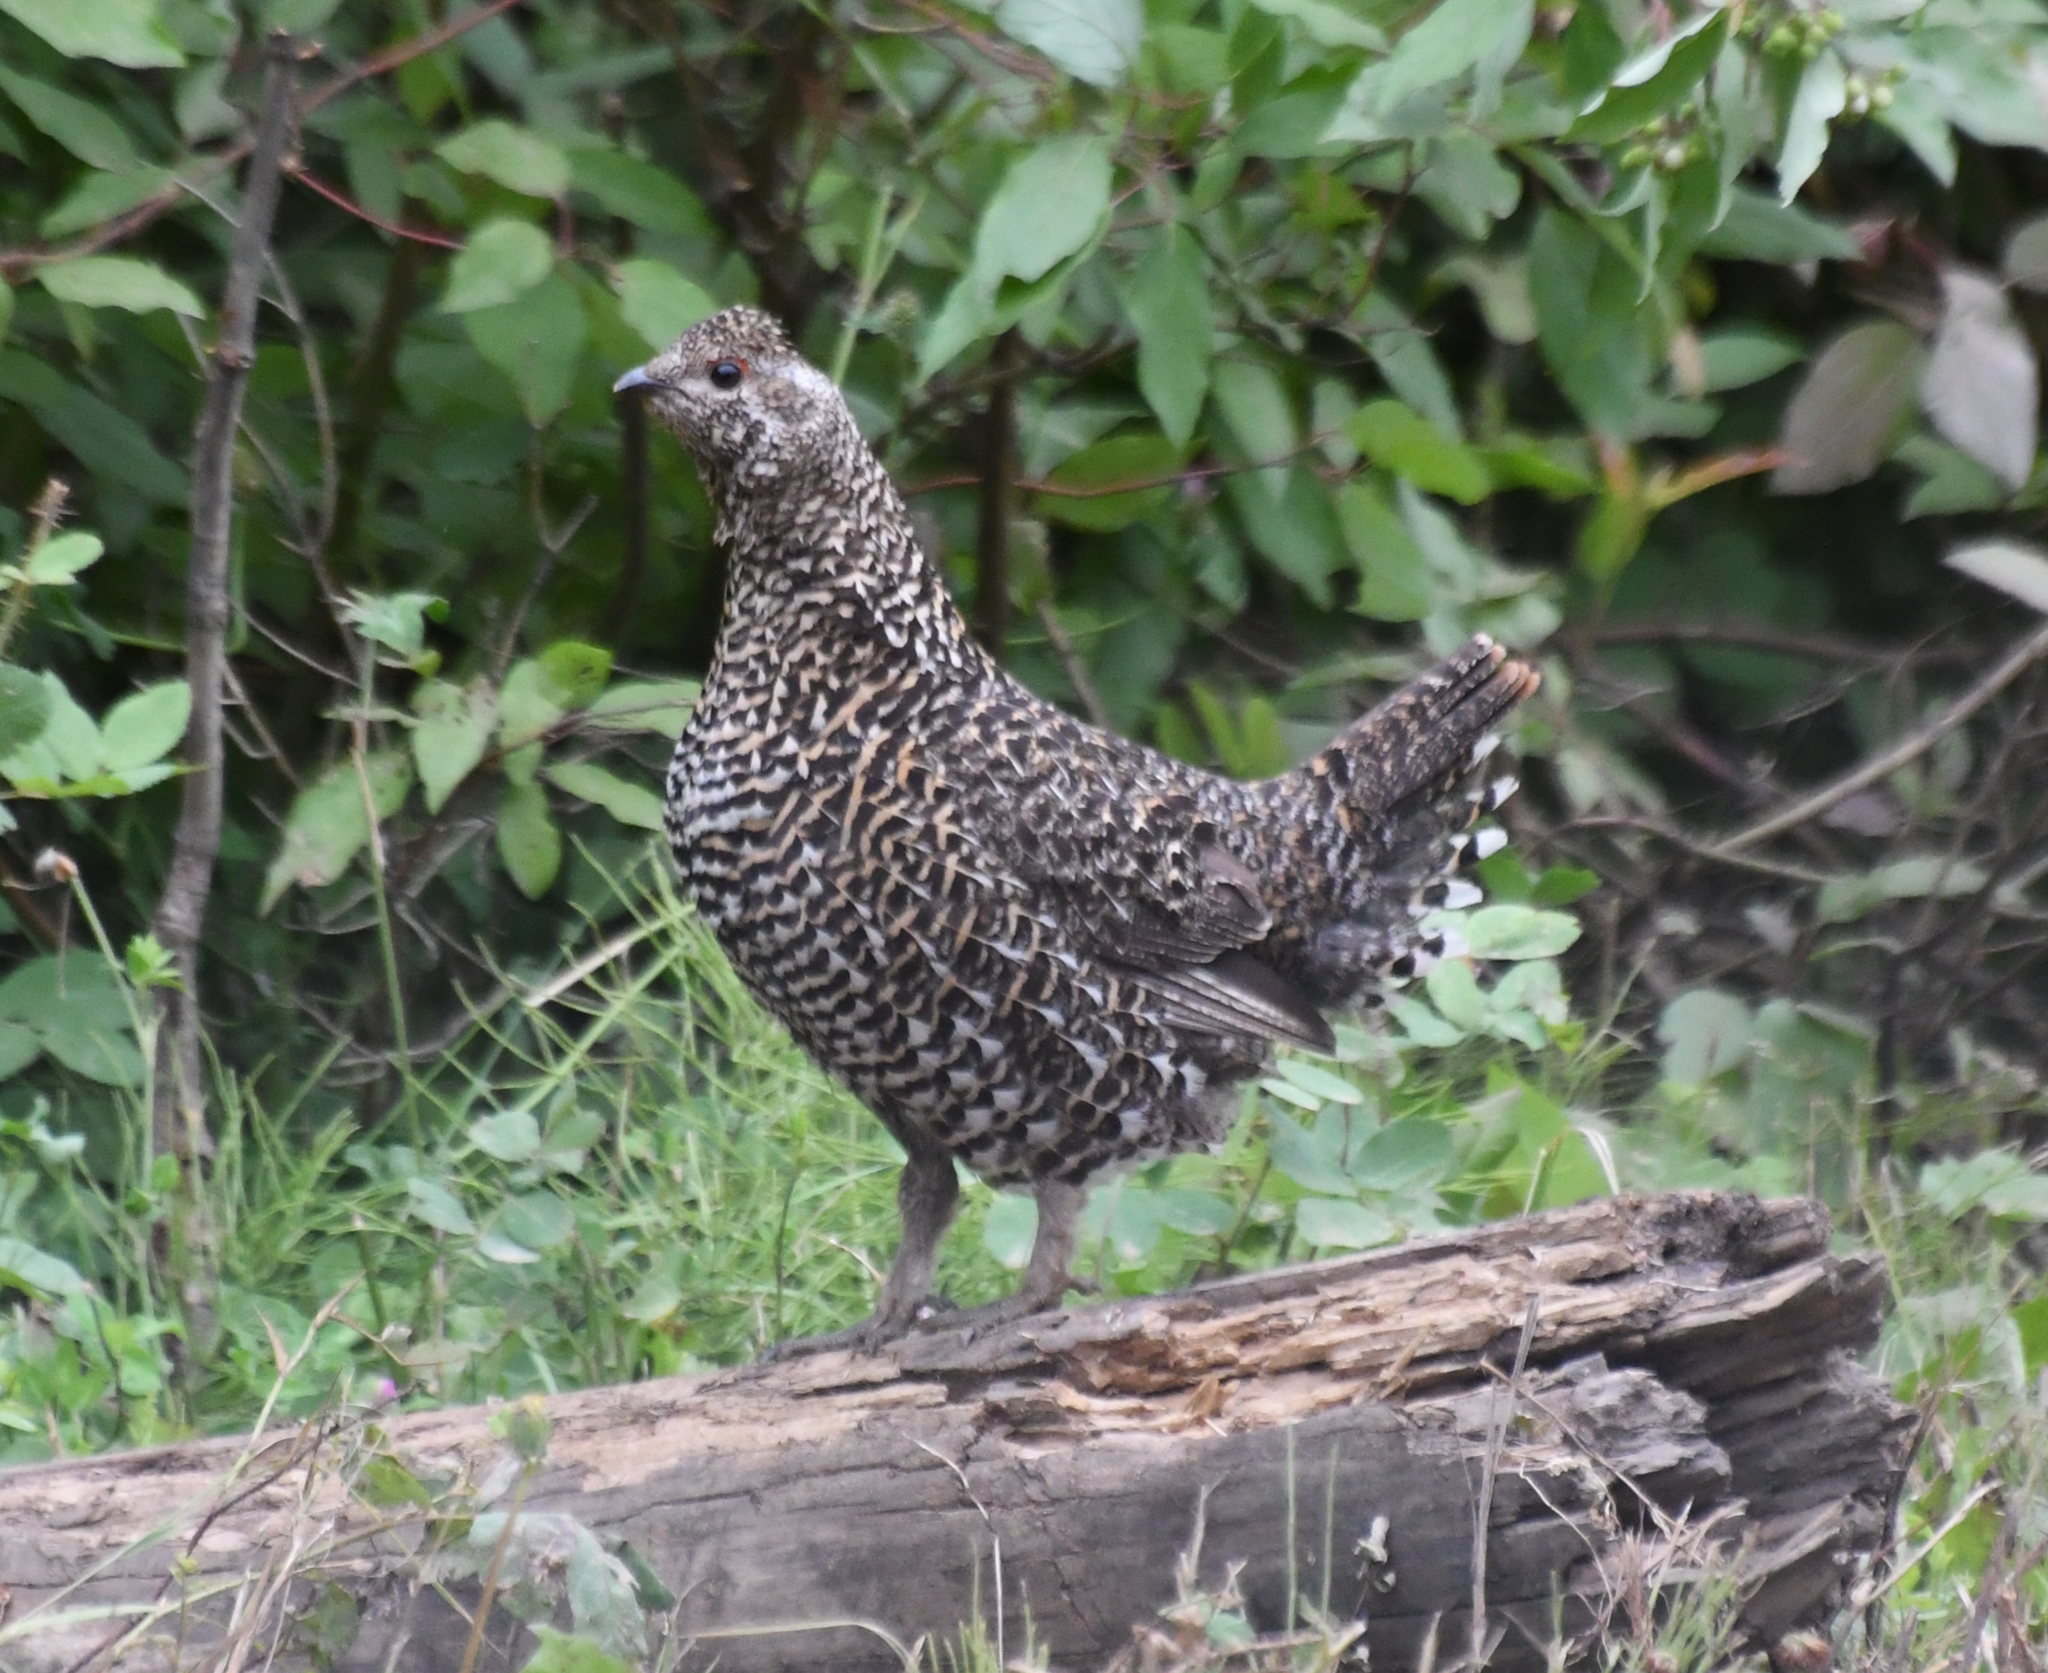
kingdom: Animalia
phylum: Chordata
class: Aves
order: Galliformes
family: Phasianidae
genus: Canachites
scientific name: Canachites canadensis
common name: Spruce grouse
